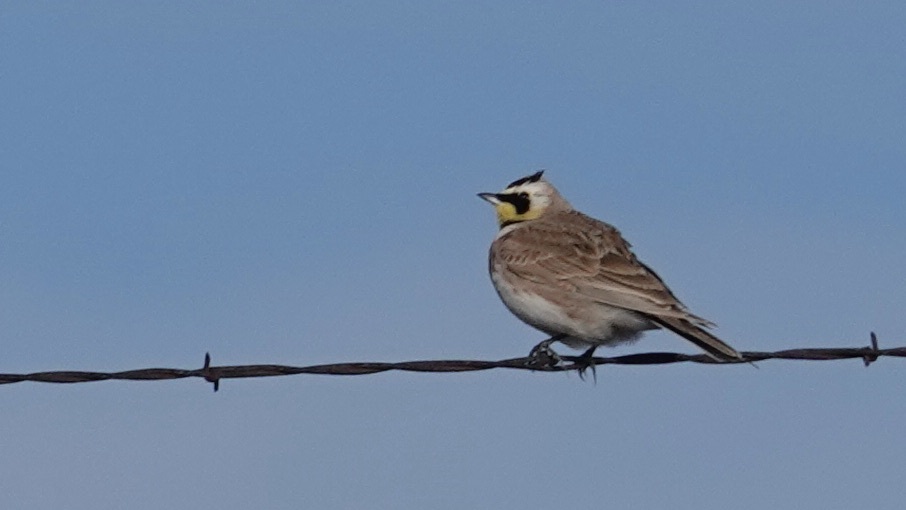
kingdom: Animalia
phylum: Chordata
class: Aves
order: Passeriformes
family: Alaudidae
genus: Eremophila
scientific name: Eremophila alpestris
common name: Horned lark
